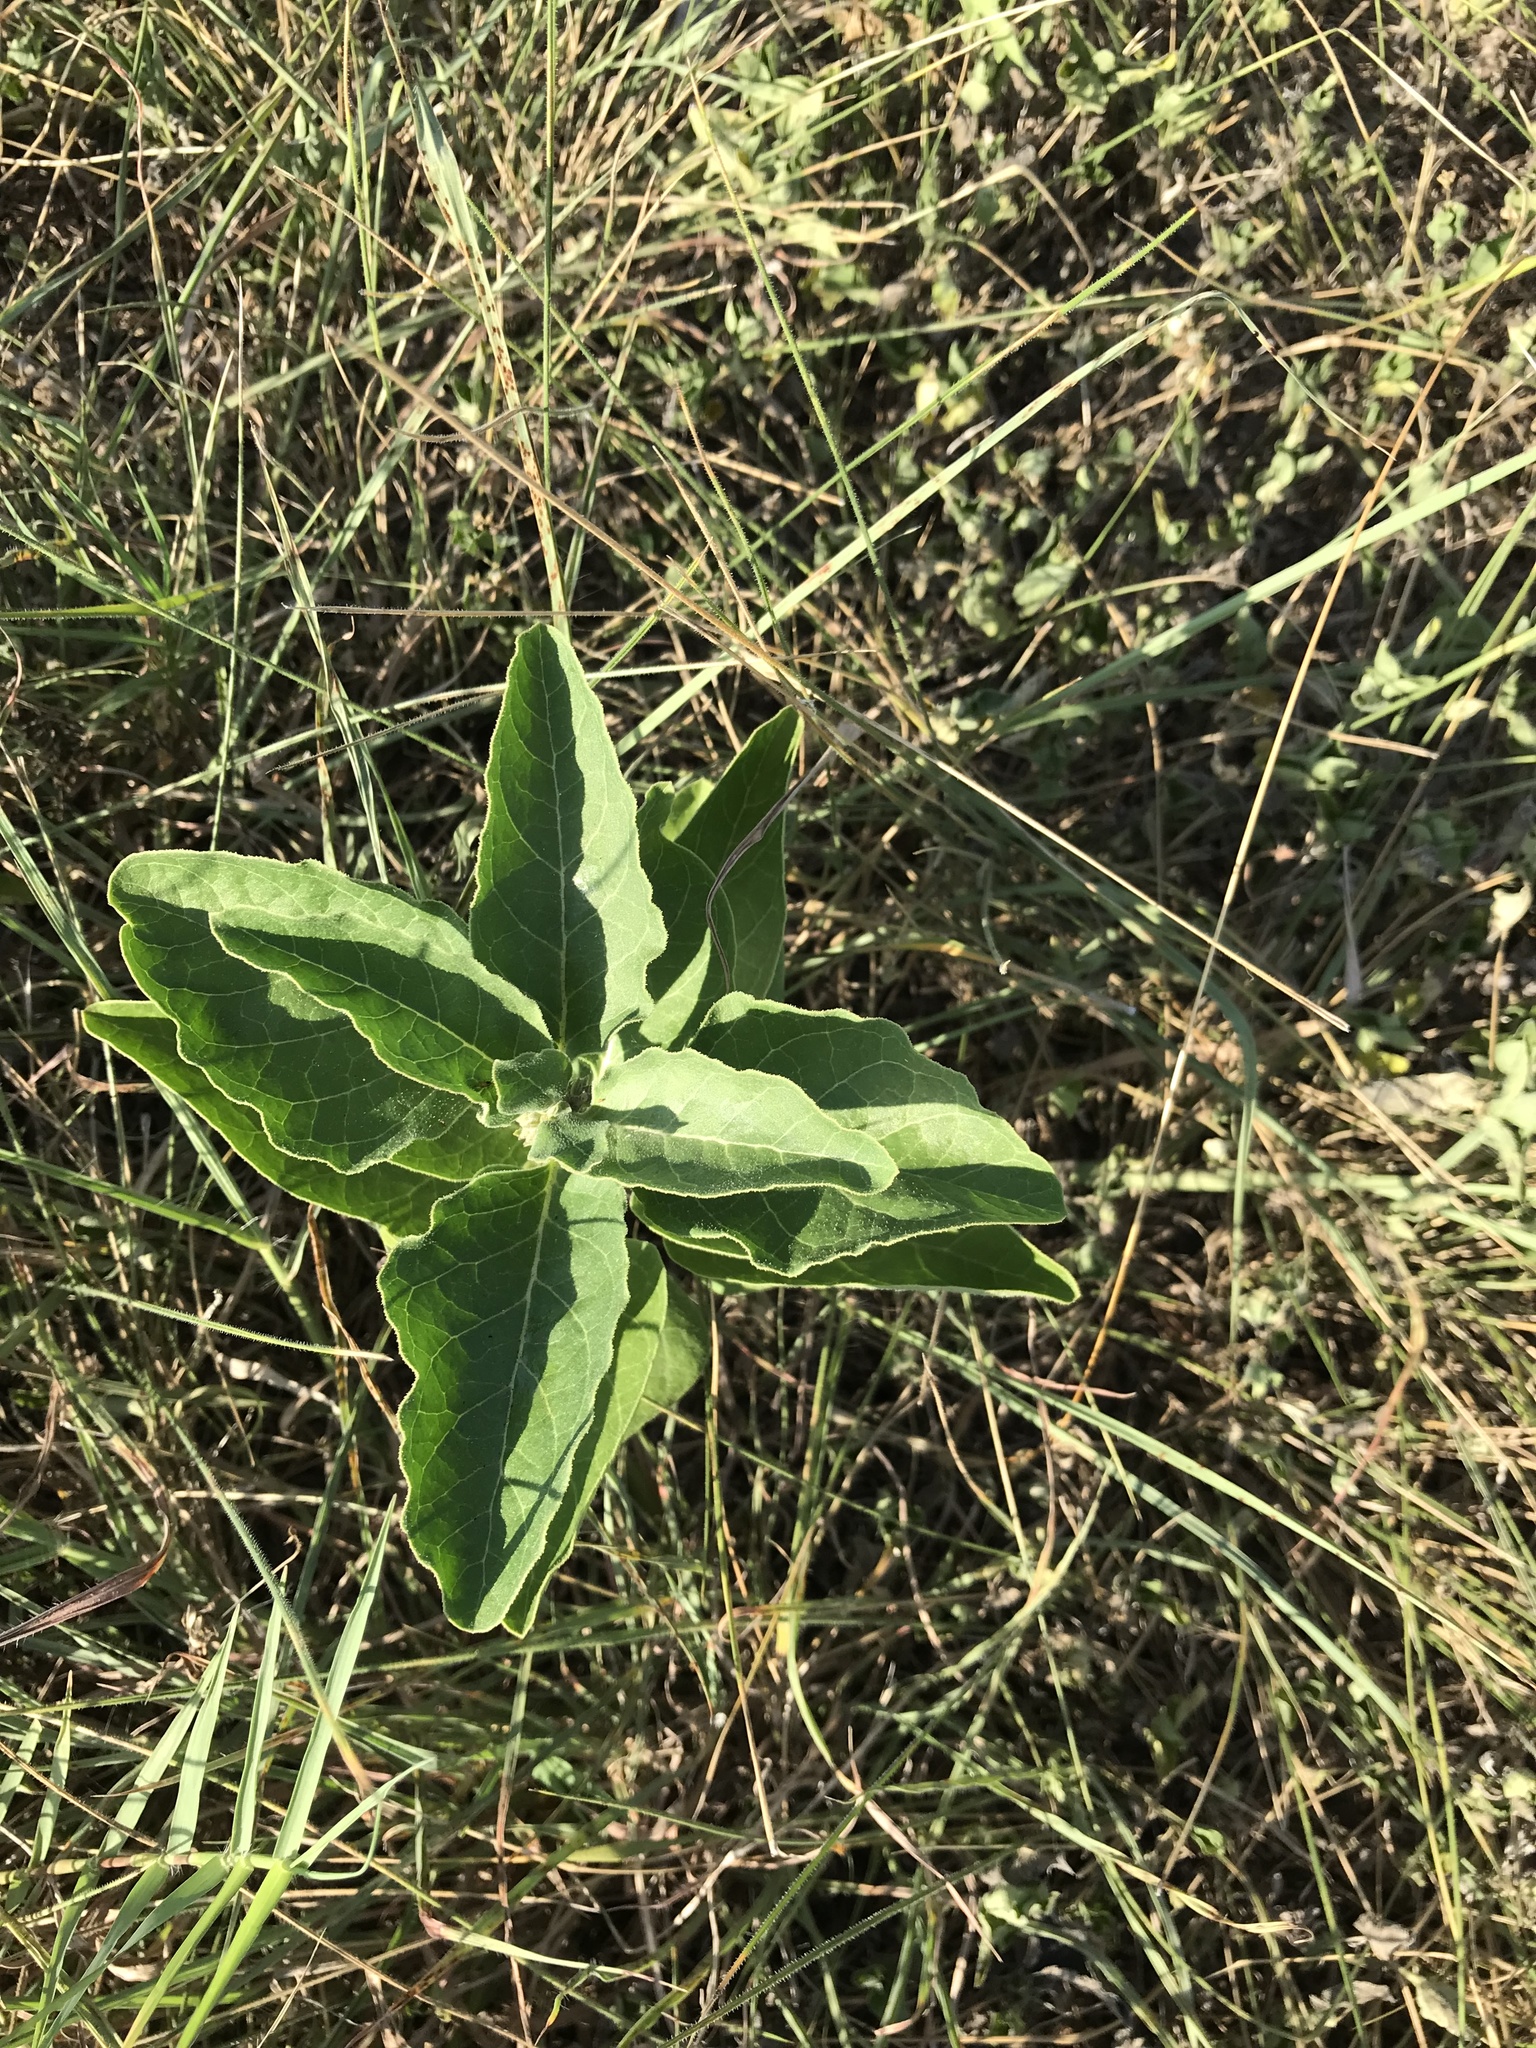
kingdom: Plantae
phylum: Tracheophyta
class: Magnoliopsida
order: Gentianales
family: Apocynaceae
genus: Asclepias
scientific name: Asclepias oenotheroides
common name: Zizotes milkweed
